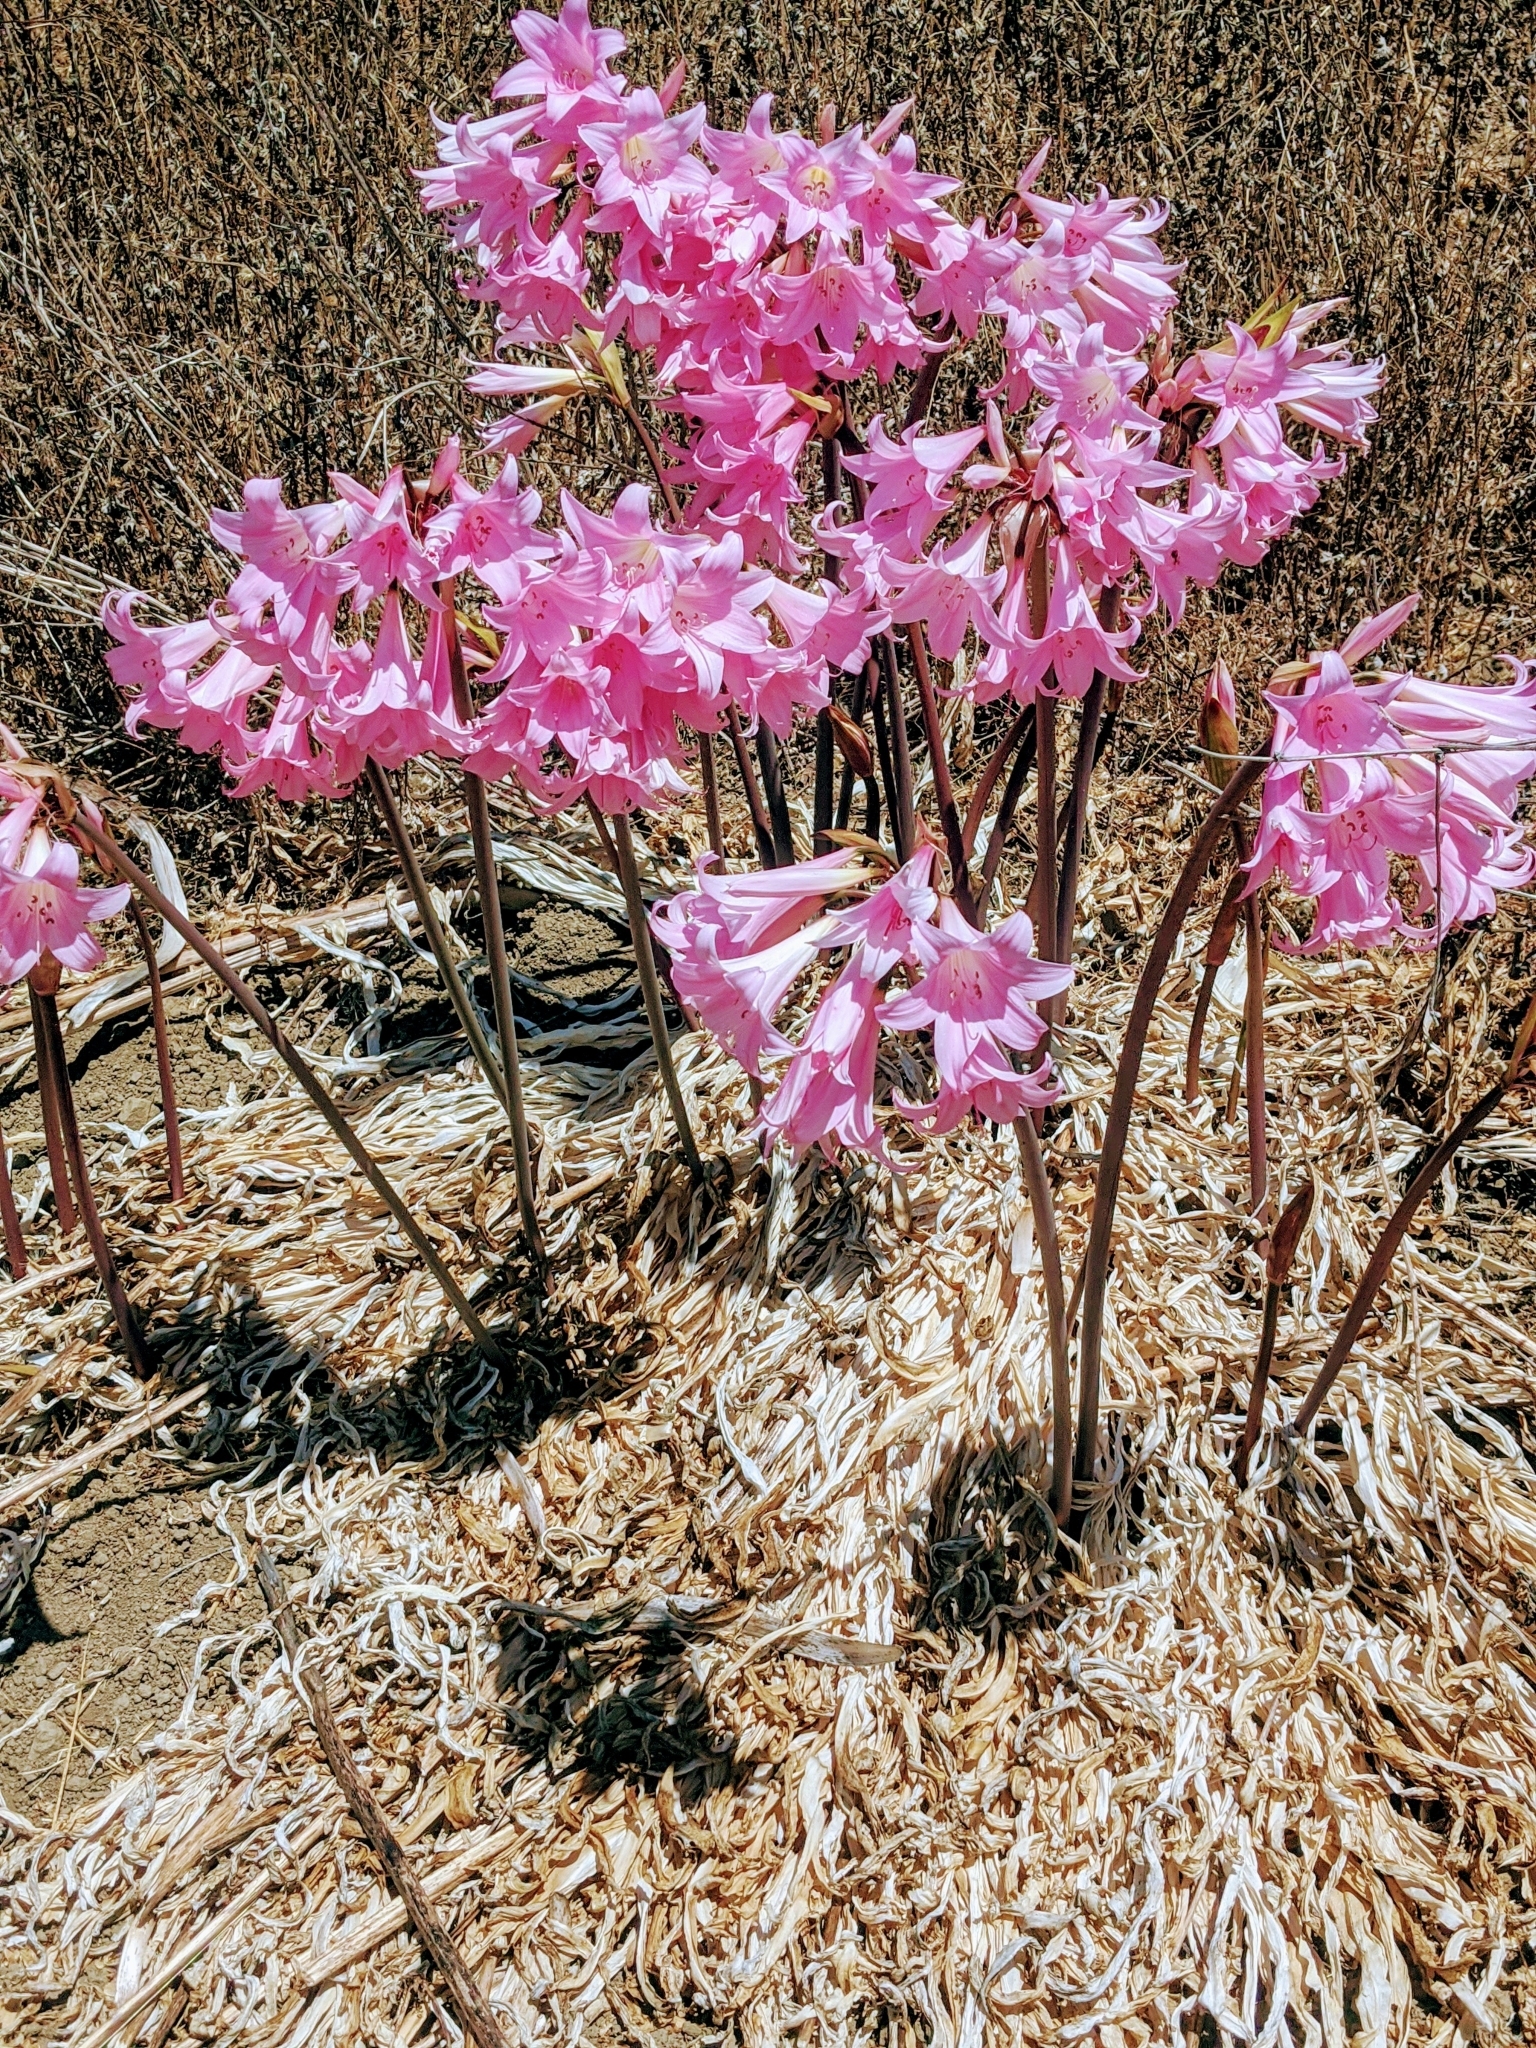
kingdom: Plantae
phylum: Tracheophyta
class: Liliopsida
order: Asparagales
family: Amaryllidaceae
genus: Amaryllis
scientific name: Amaryllis belladonna
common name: Jersey lily
